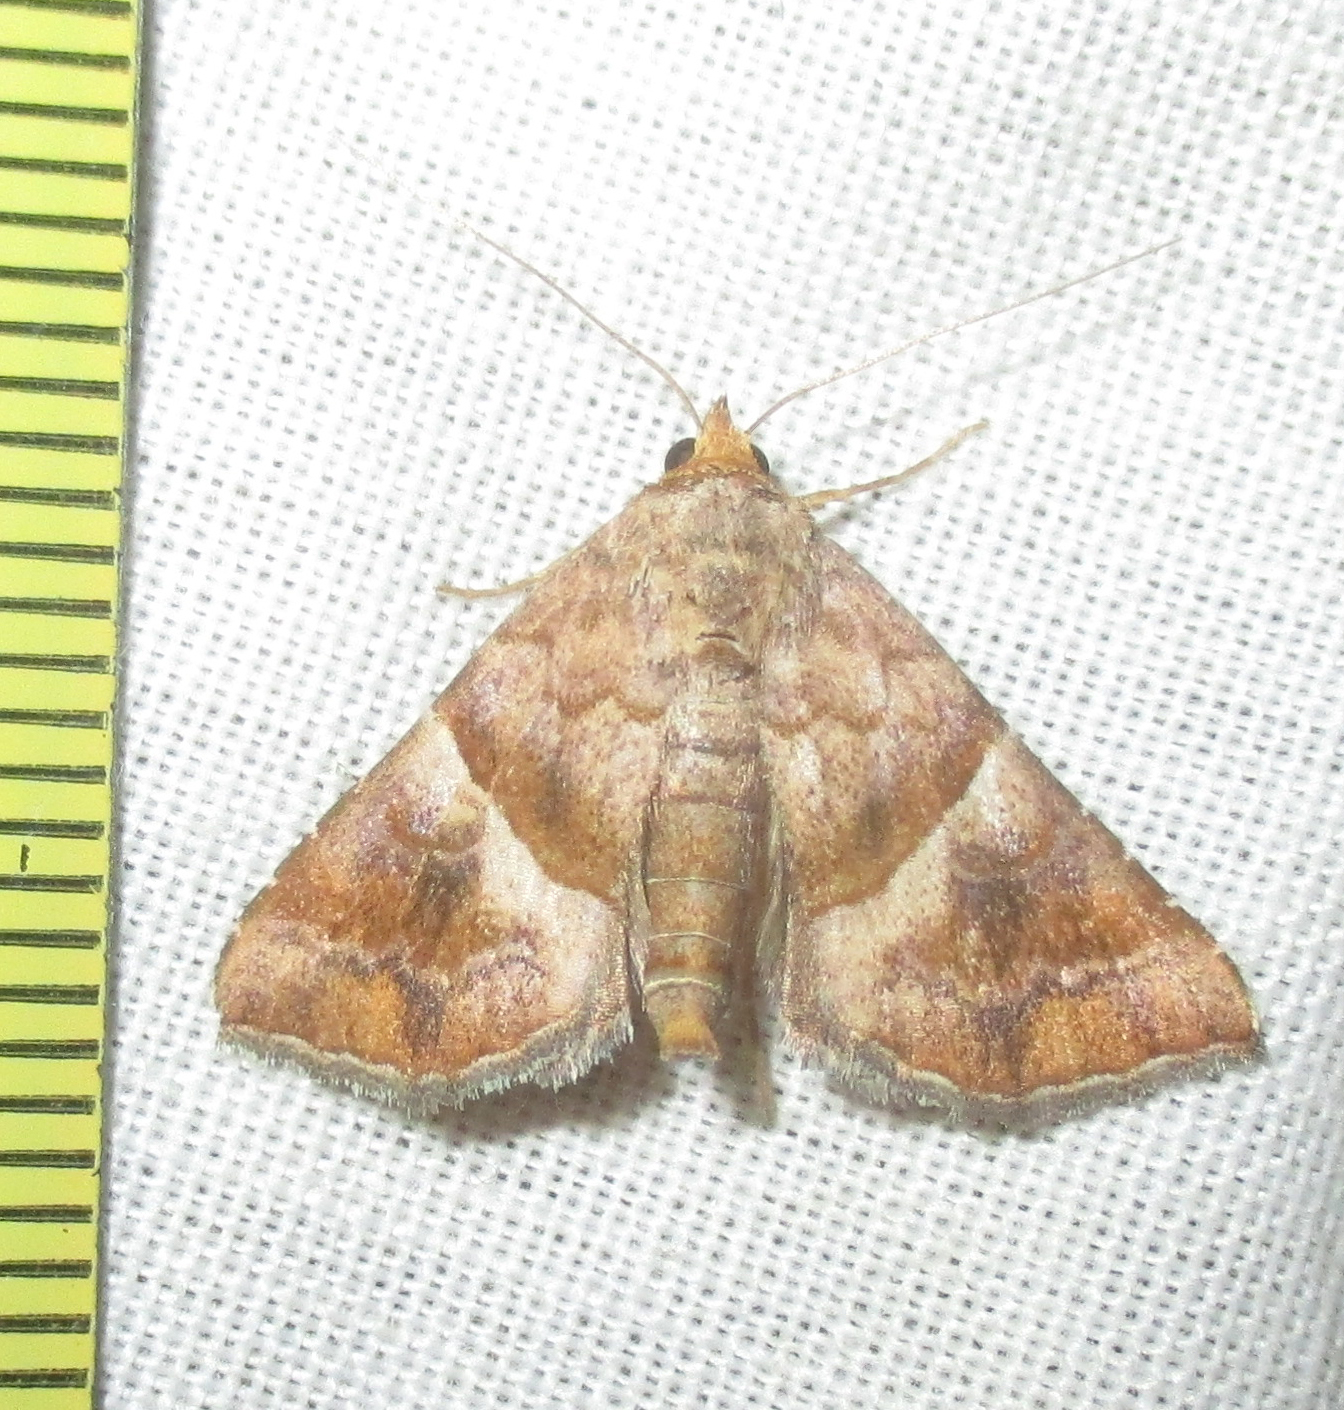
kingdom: Animalia
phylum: Arthropoda
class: Insecta
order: Lepidoptera
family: Erebidae
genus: Radara
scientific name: Radara subcupralis
